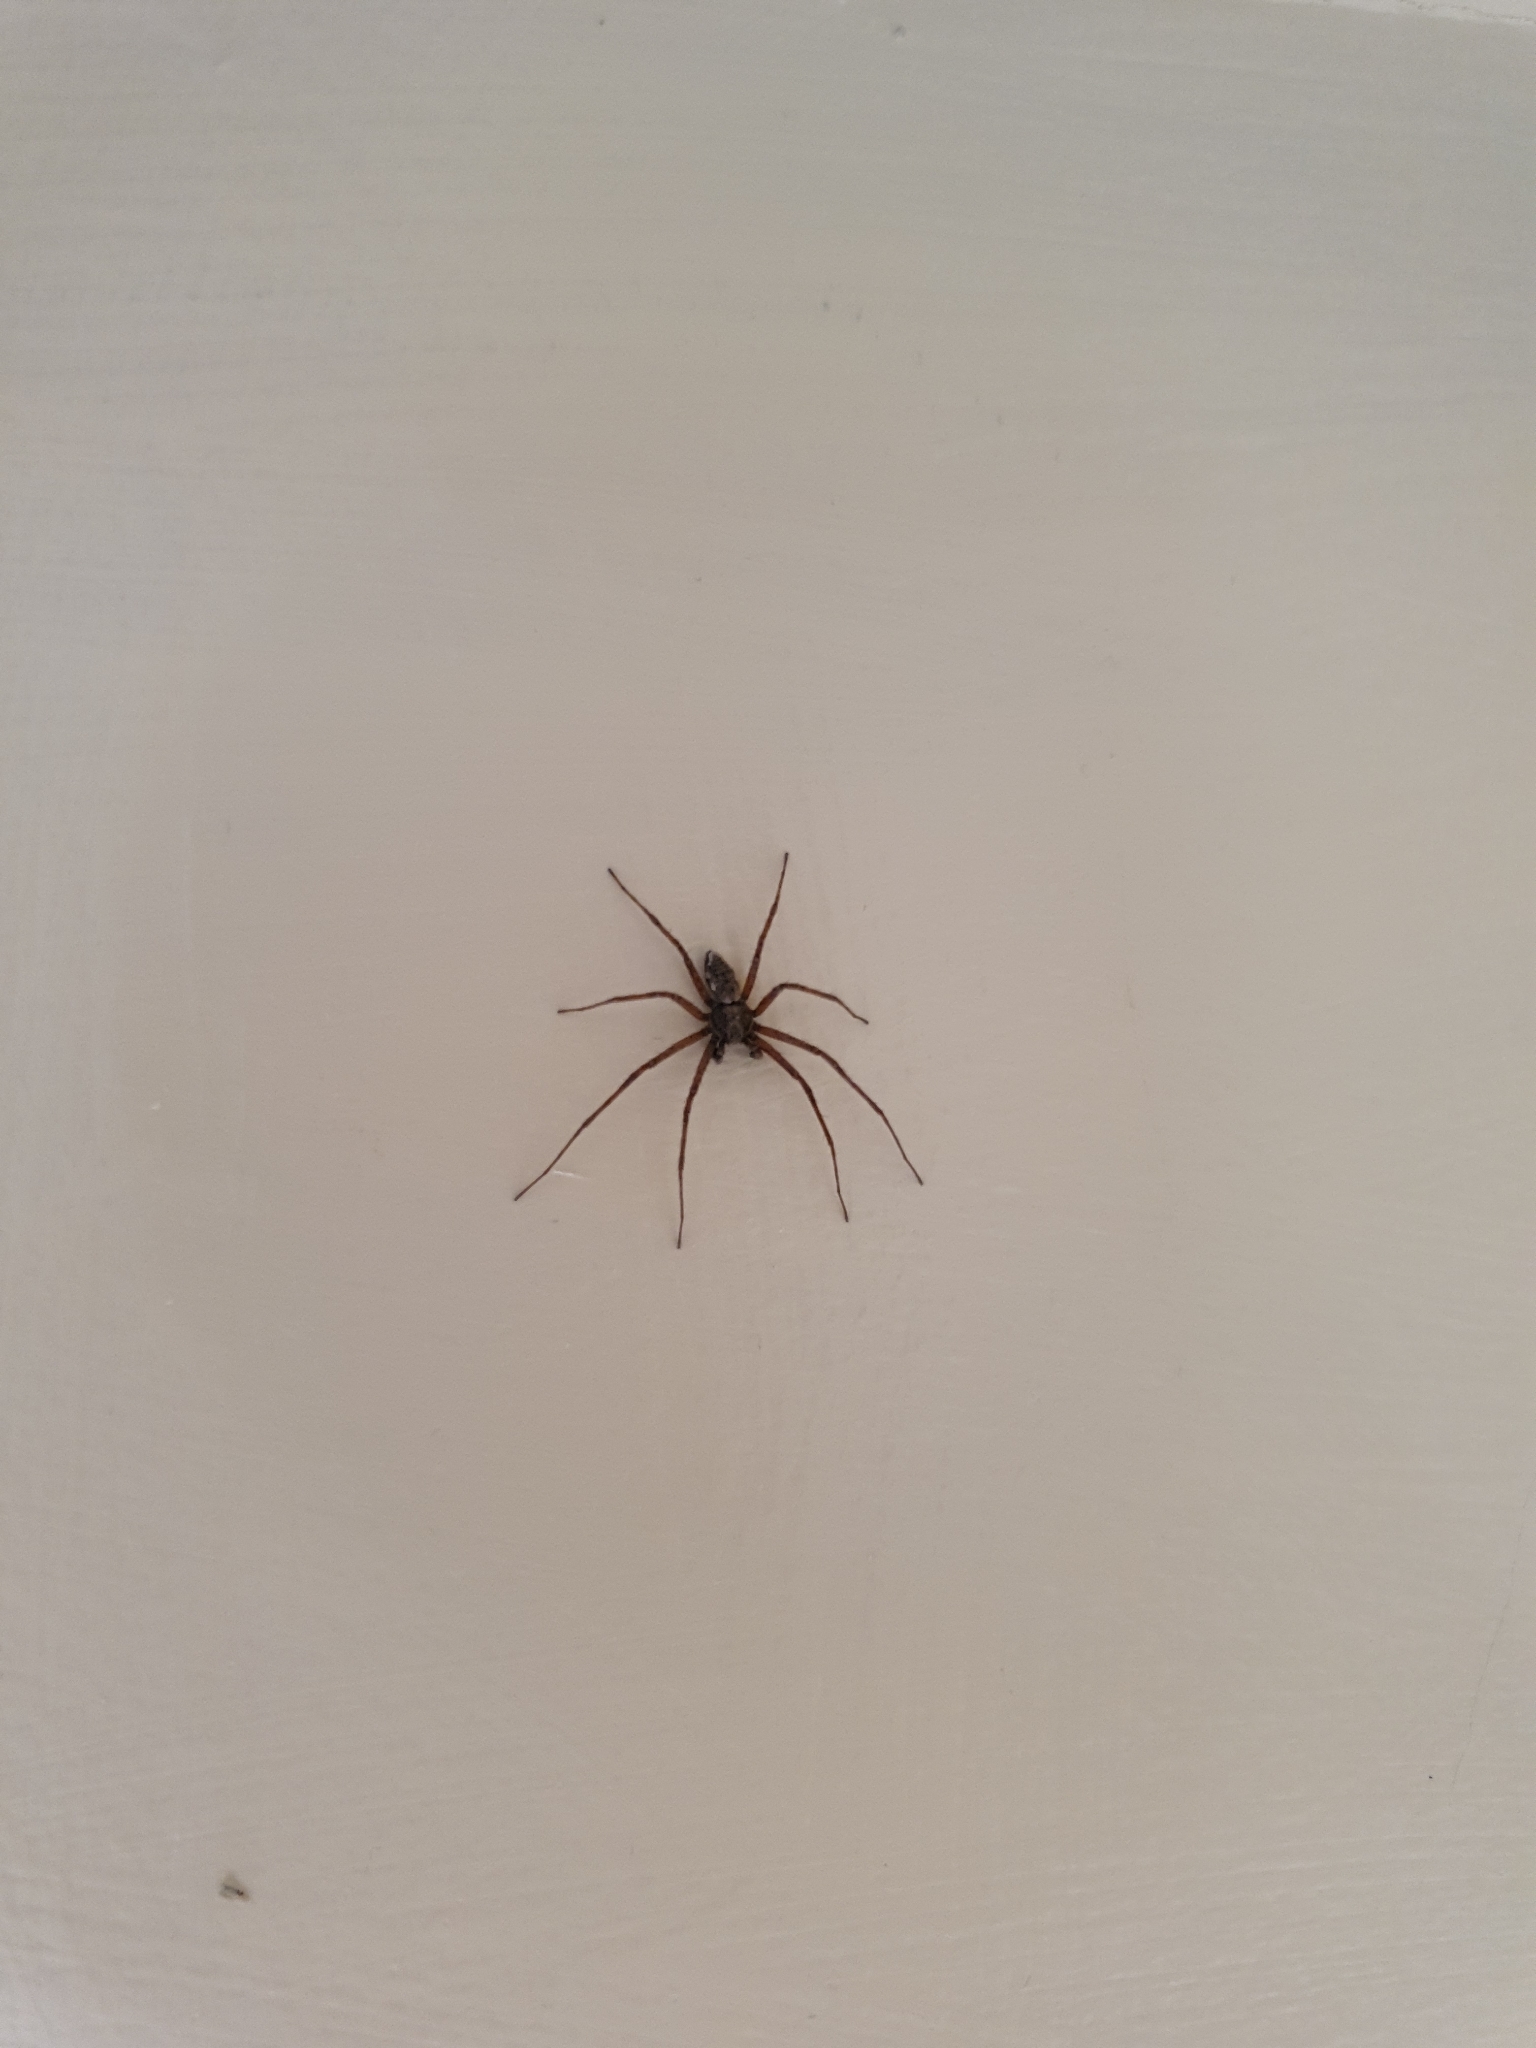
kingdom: Animalia
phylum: Arthropoda
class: Arachnida
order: Araneae
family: Philodromidae
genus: Philodromus
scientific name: Philodromus
